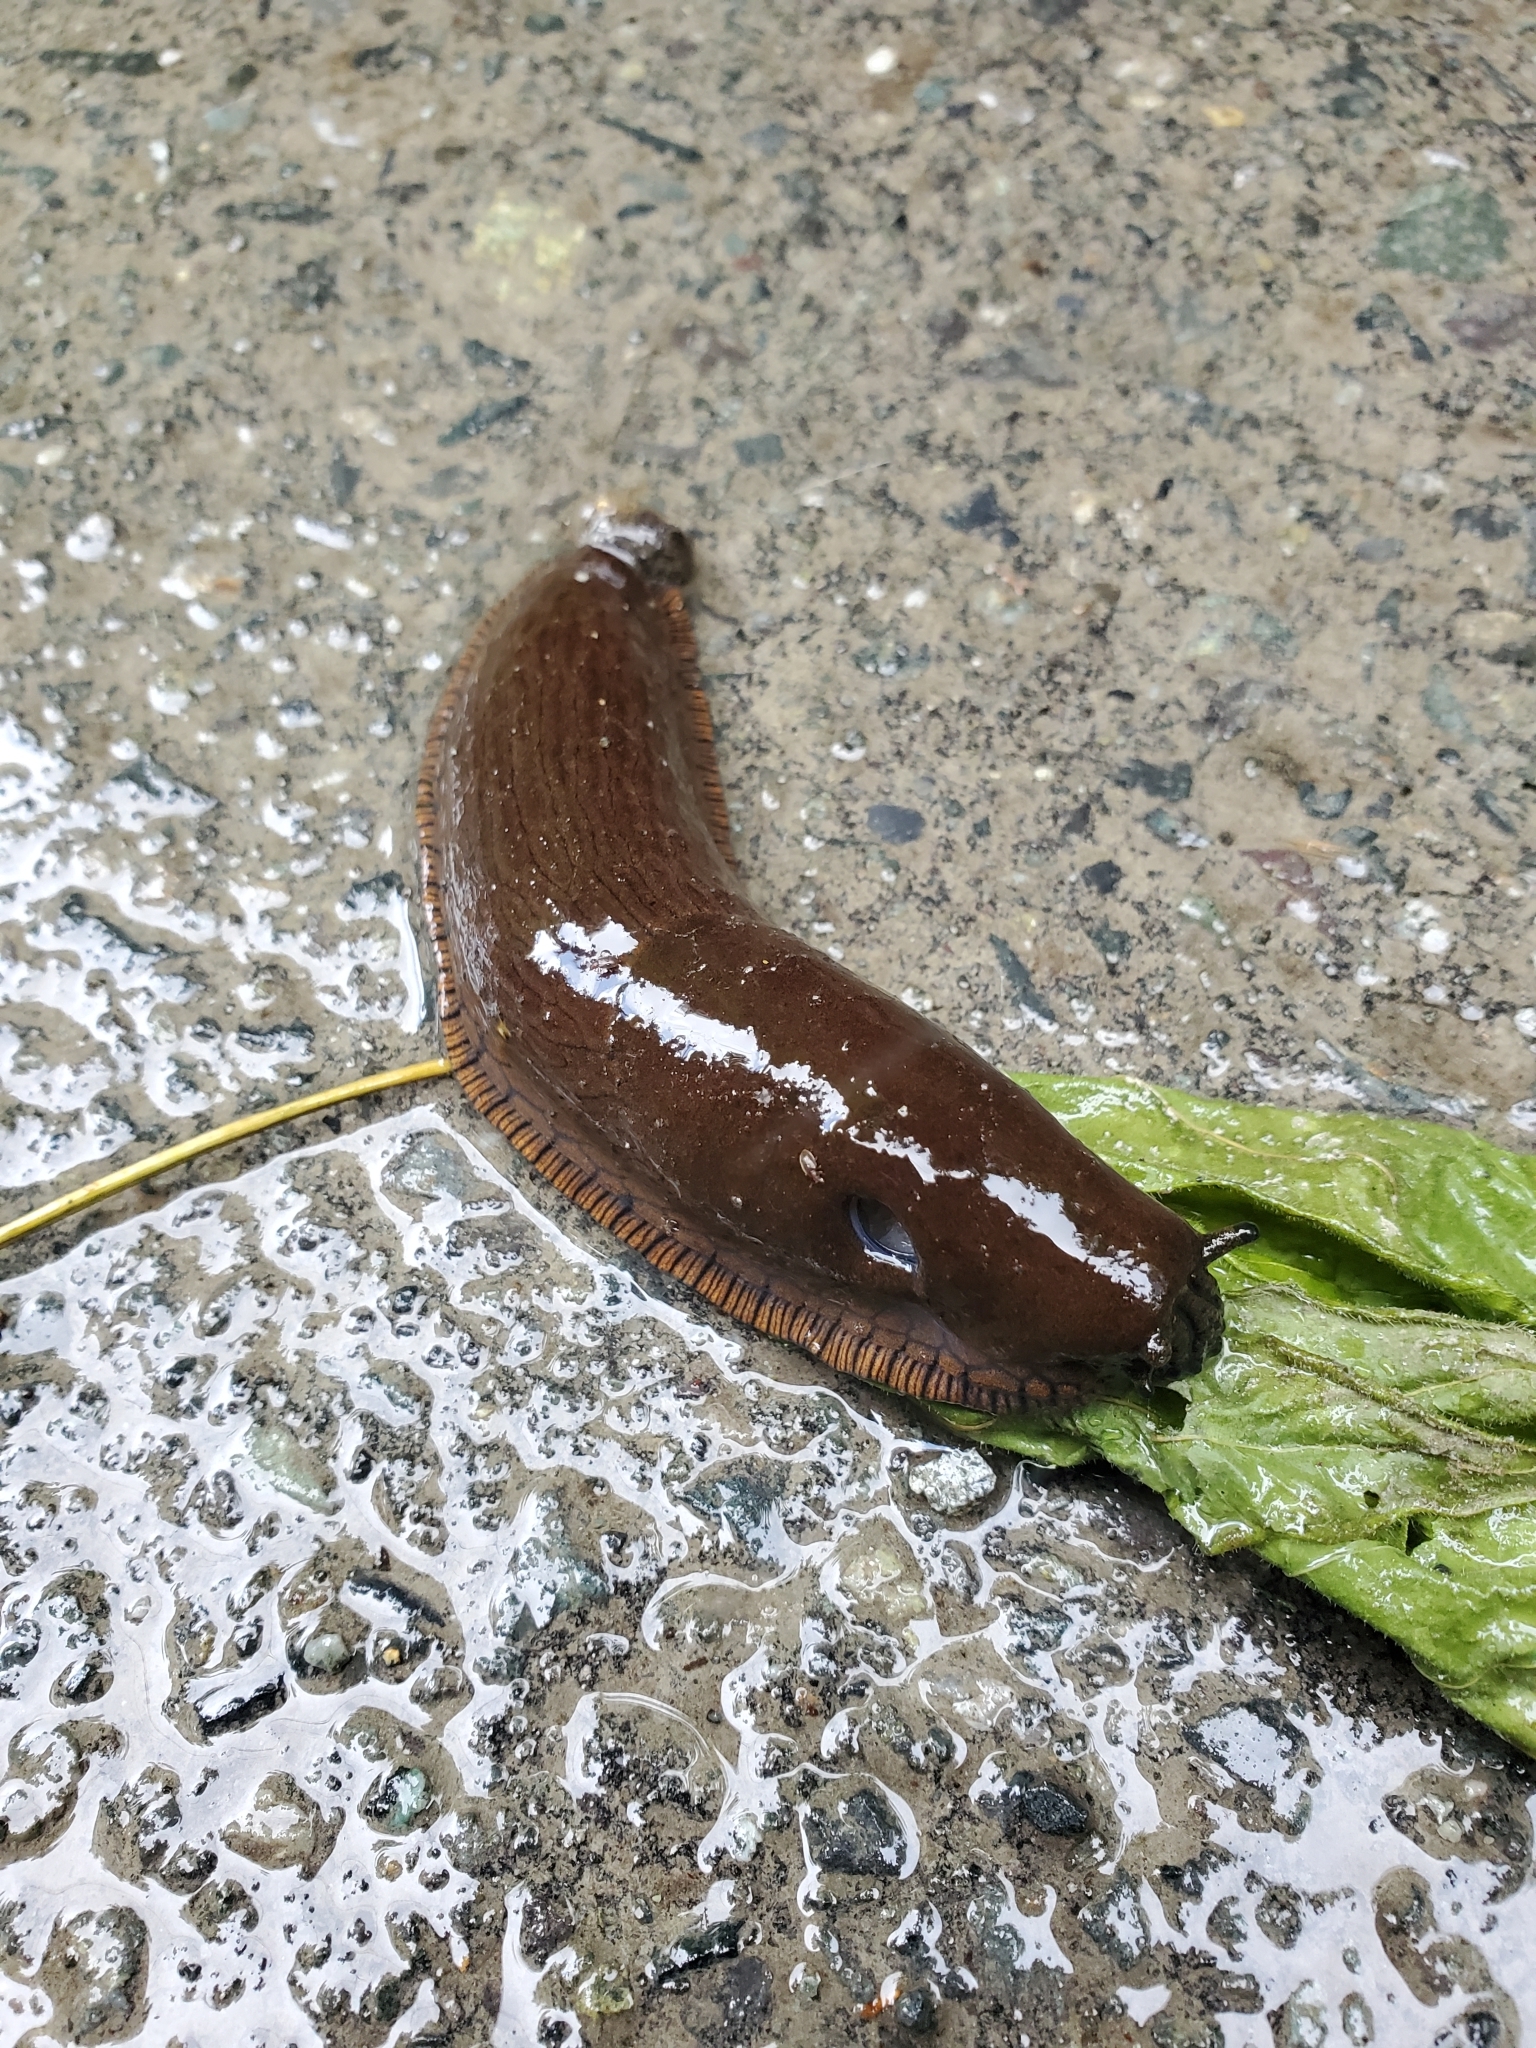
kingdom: Animalia
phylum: Mollusca
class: Gastropoda
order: Stylommatophora
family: Arionidae
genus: Arion
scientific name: Arion rufus
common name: Chocolate arion
